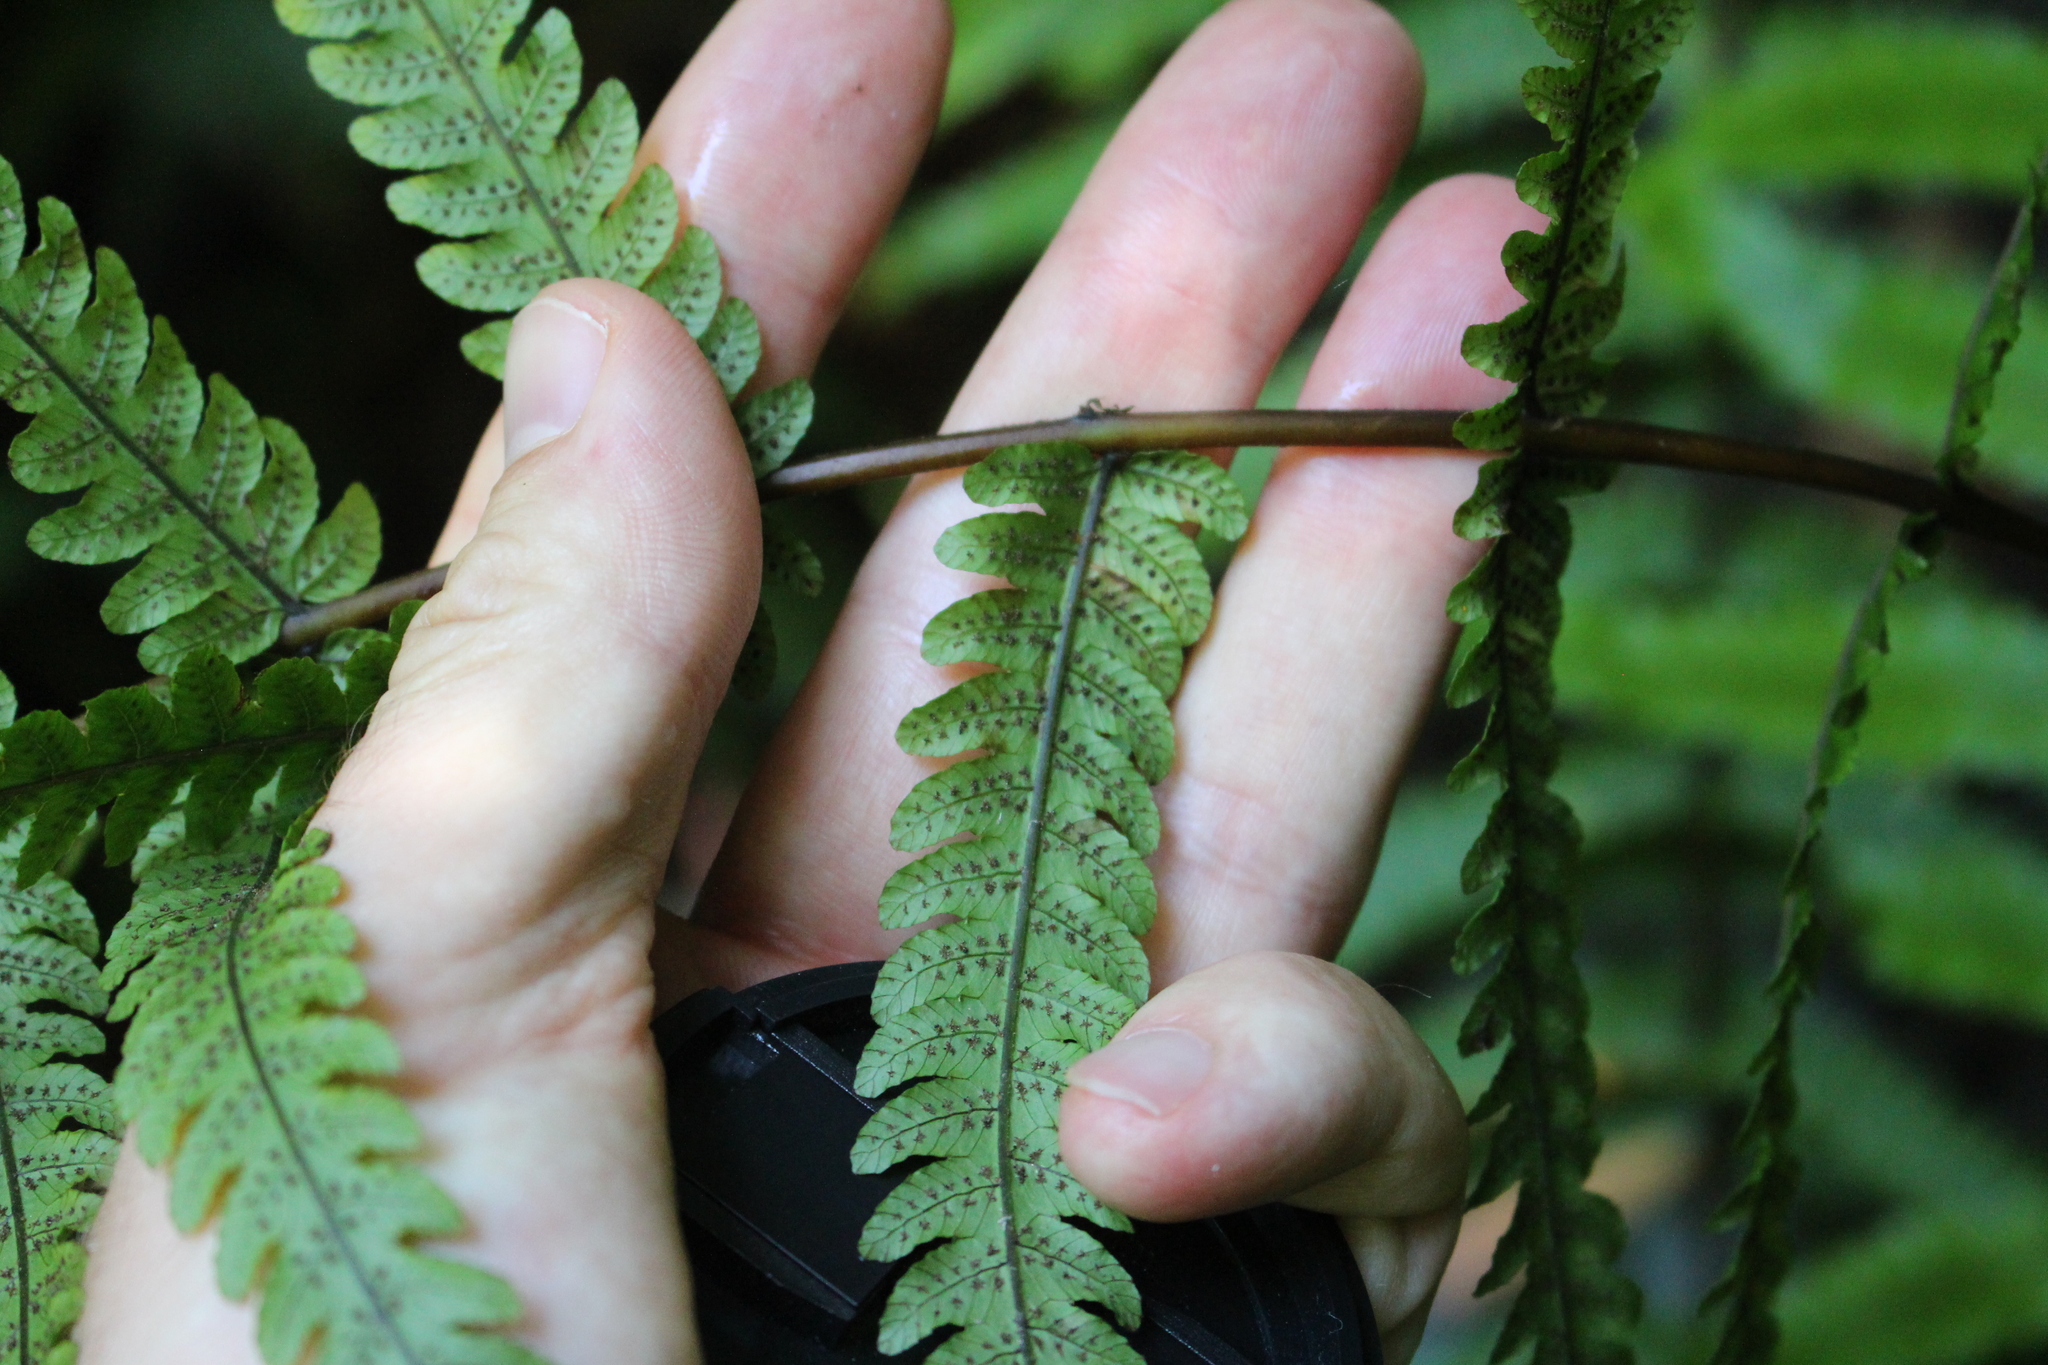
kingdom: Plantae
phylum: Tracheophyta
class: Polypodiopsida
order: Polypodiales
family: Thelypteridaceae
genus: Pakau
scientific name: Pakau pennigera
